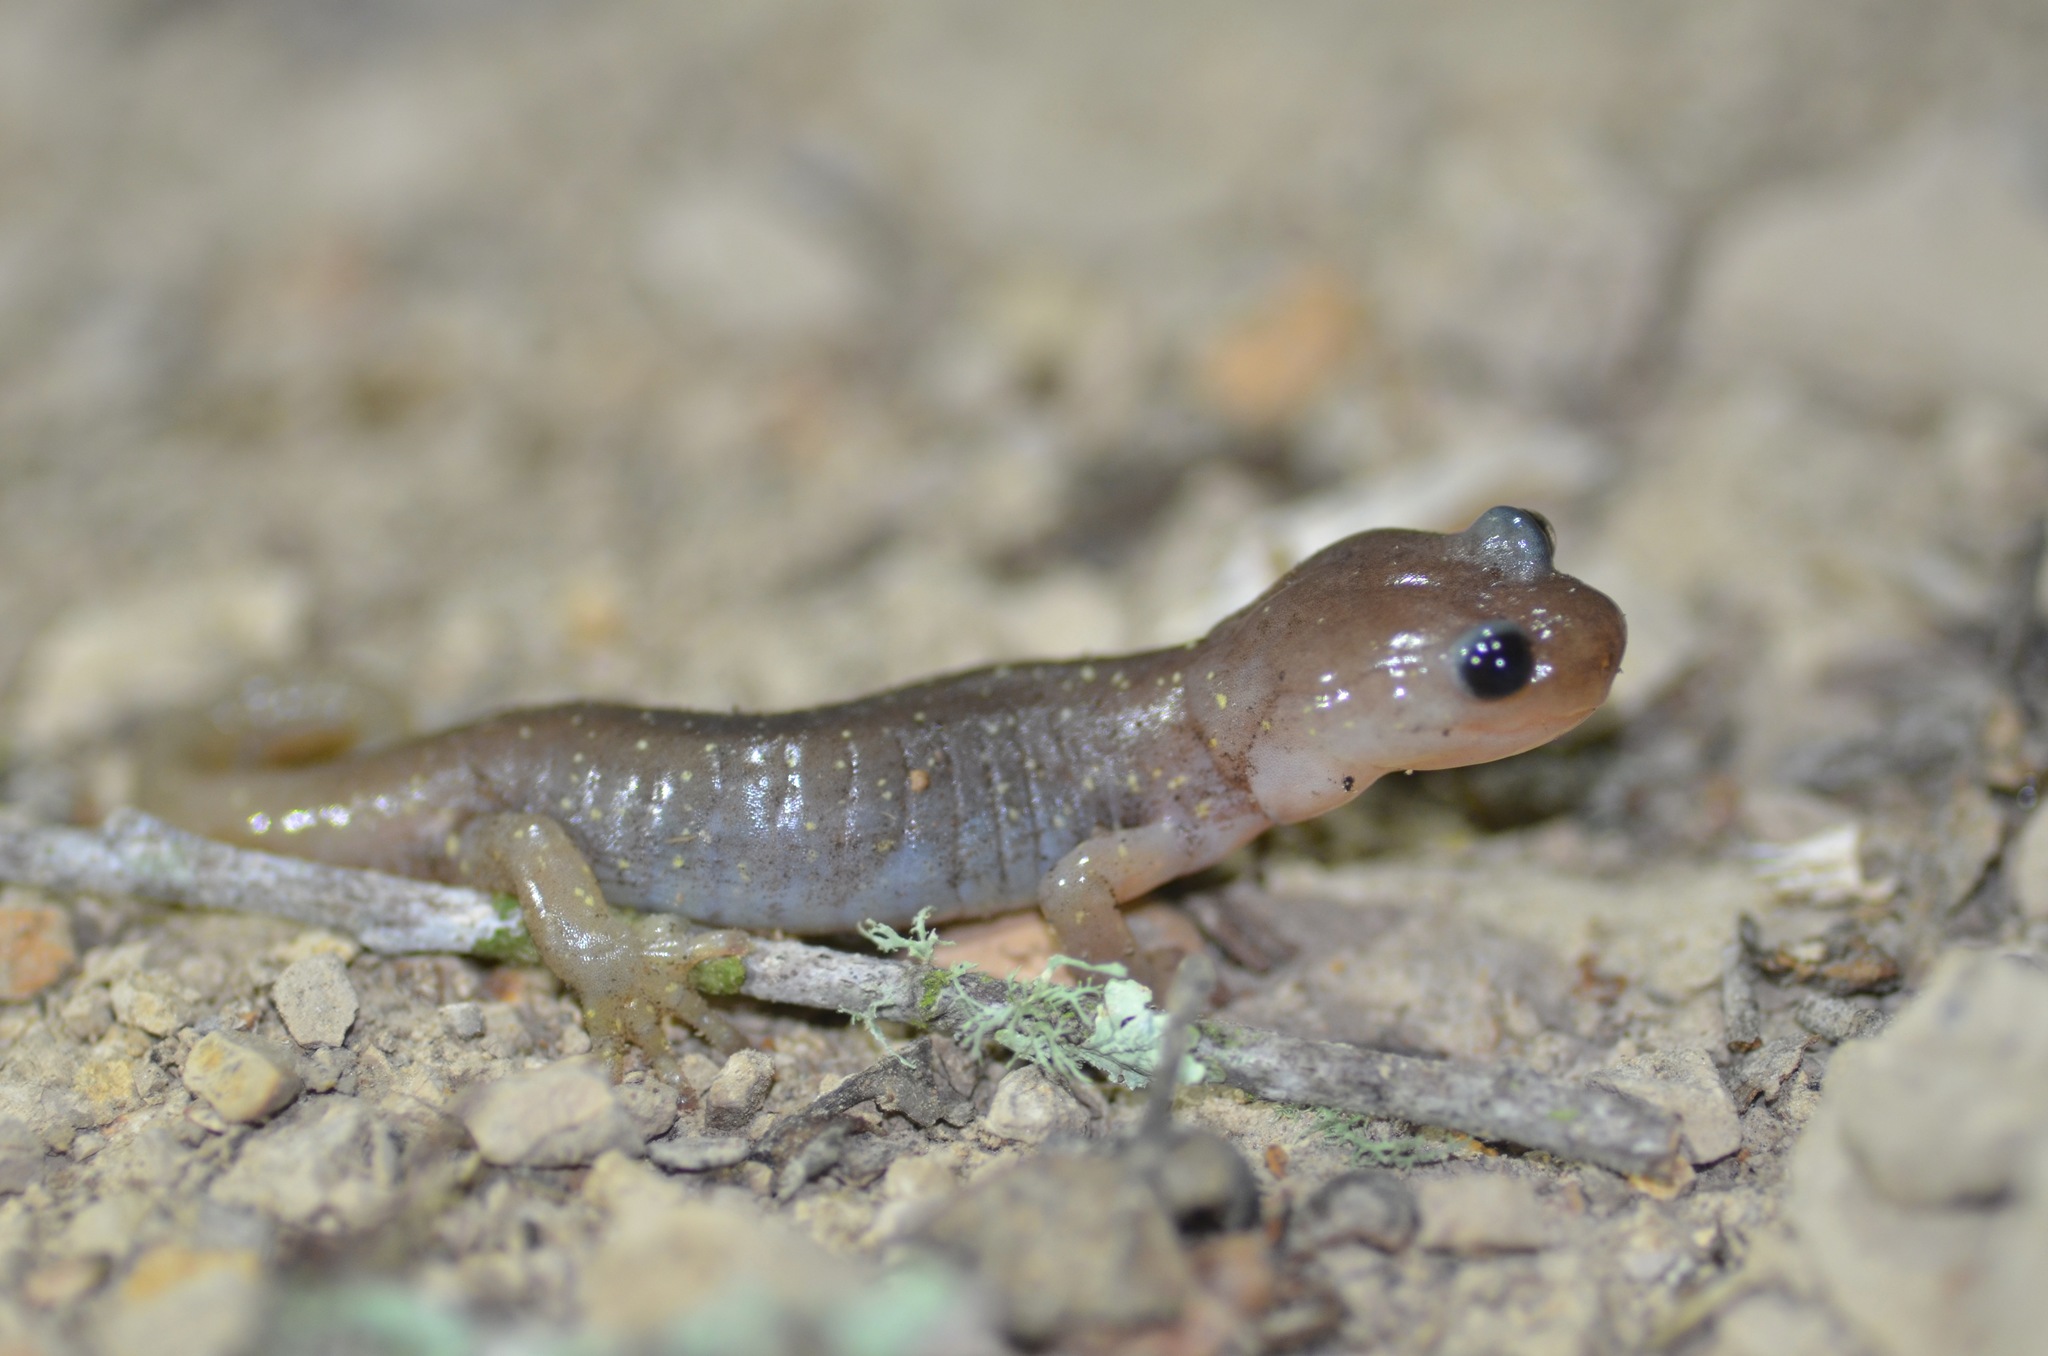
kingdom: Animalia
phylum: Chordata
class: Amphibia
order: Caudata
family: Plethodontidae
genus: Aneides
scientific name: Aneides lugubris
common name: Arboreal salamander
